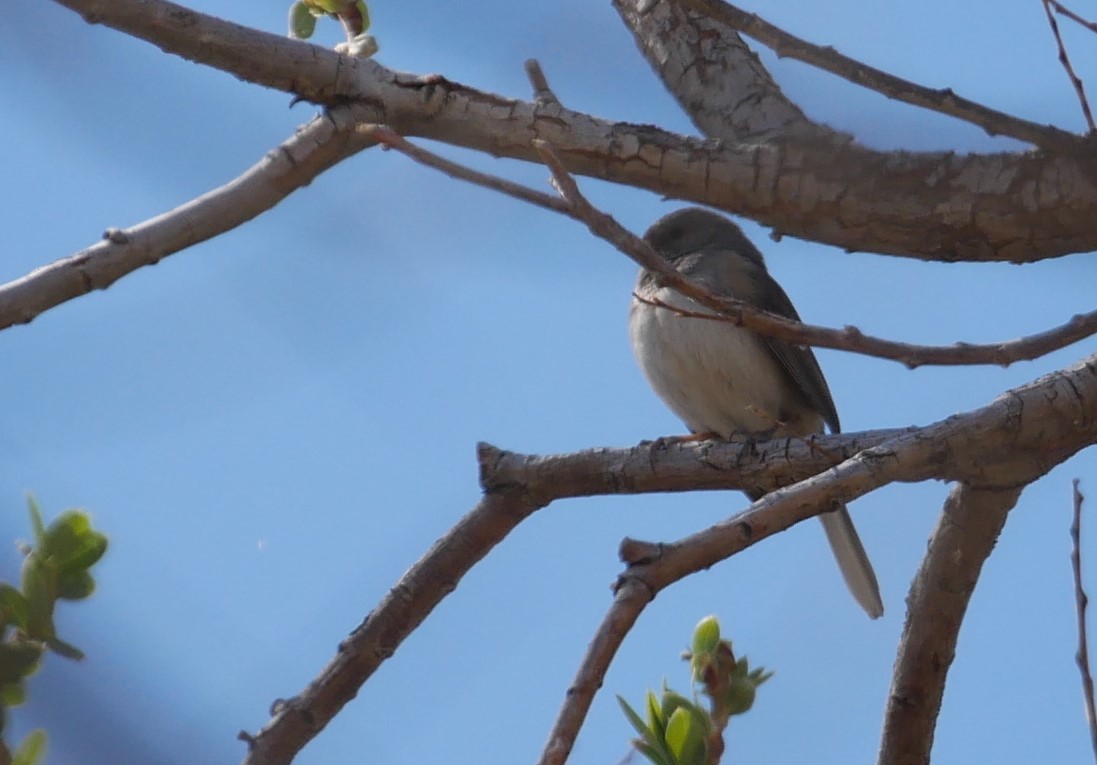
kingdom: Animalia
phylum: Chordata
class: Aves
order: Passeriformes
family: Passerellidae
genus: Junco
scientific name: Junco hyemalis
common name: Dark-eyed junco
